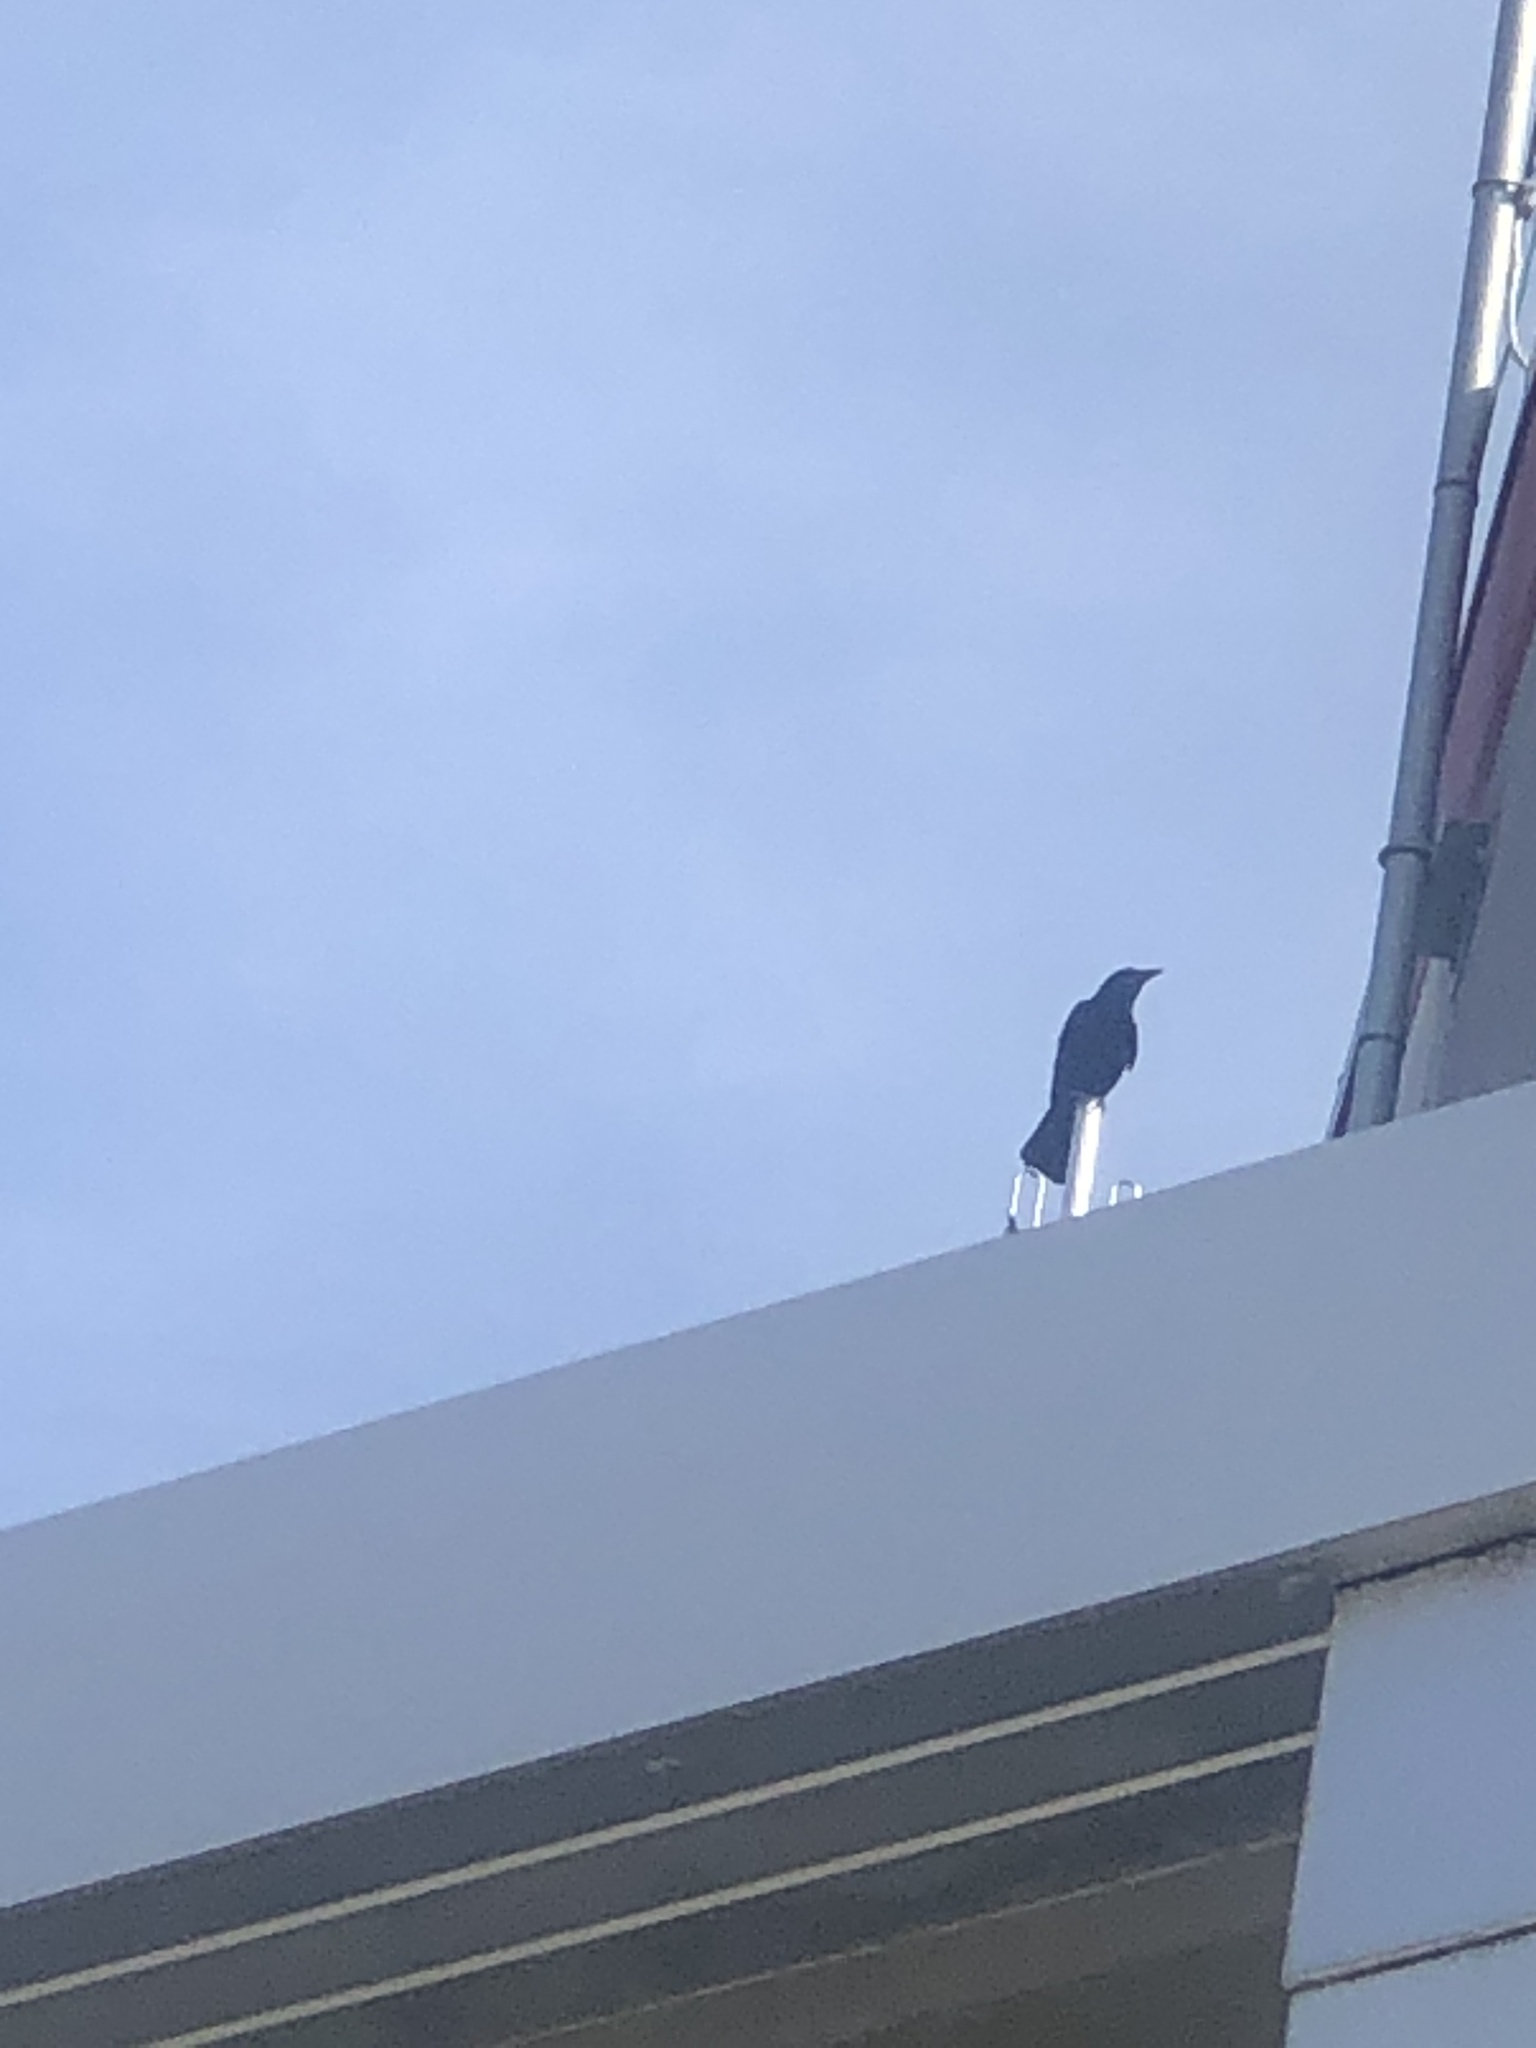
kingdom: Animalia
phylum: Chordata
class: Aves
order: Passeriformes
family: Corvidae
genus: Corvus
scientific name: Corvus
